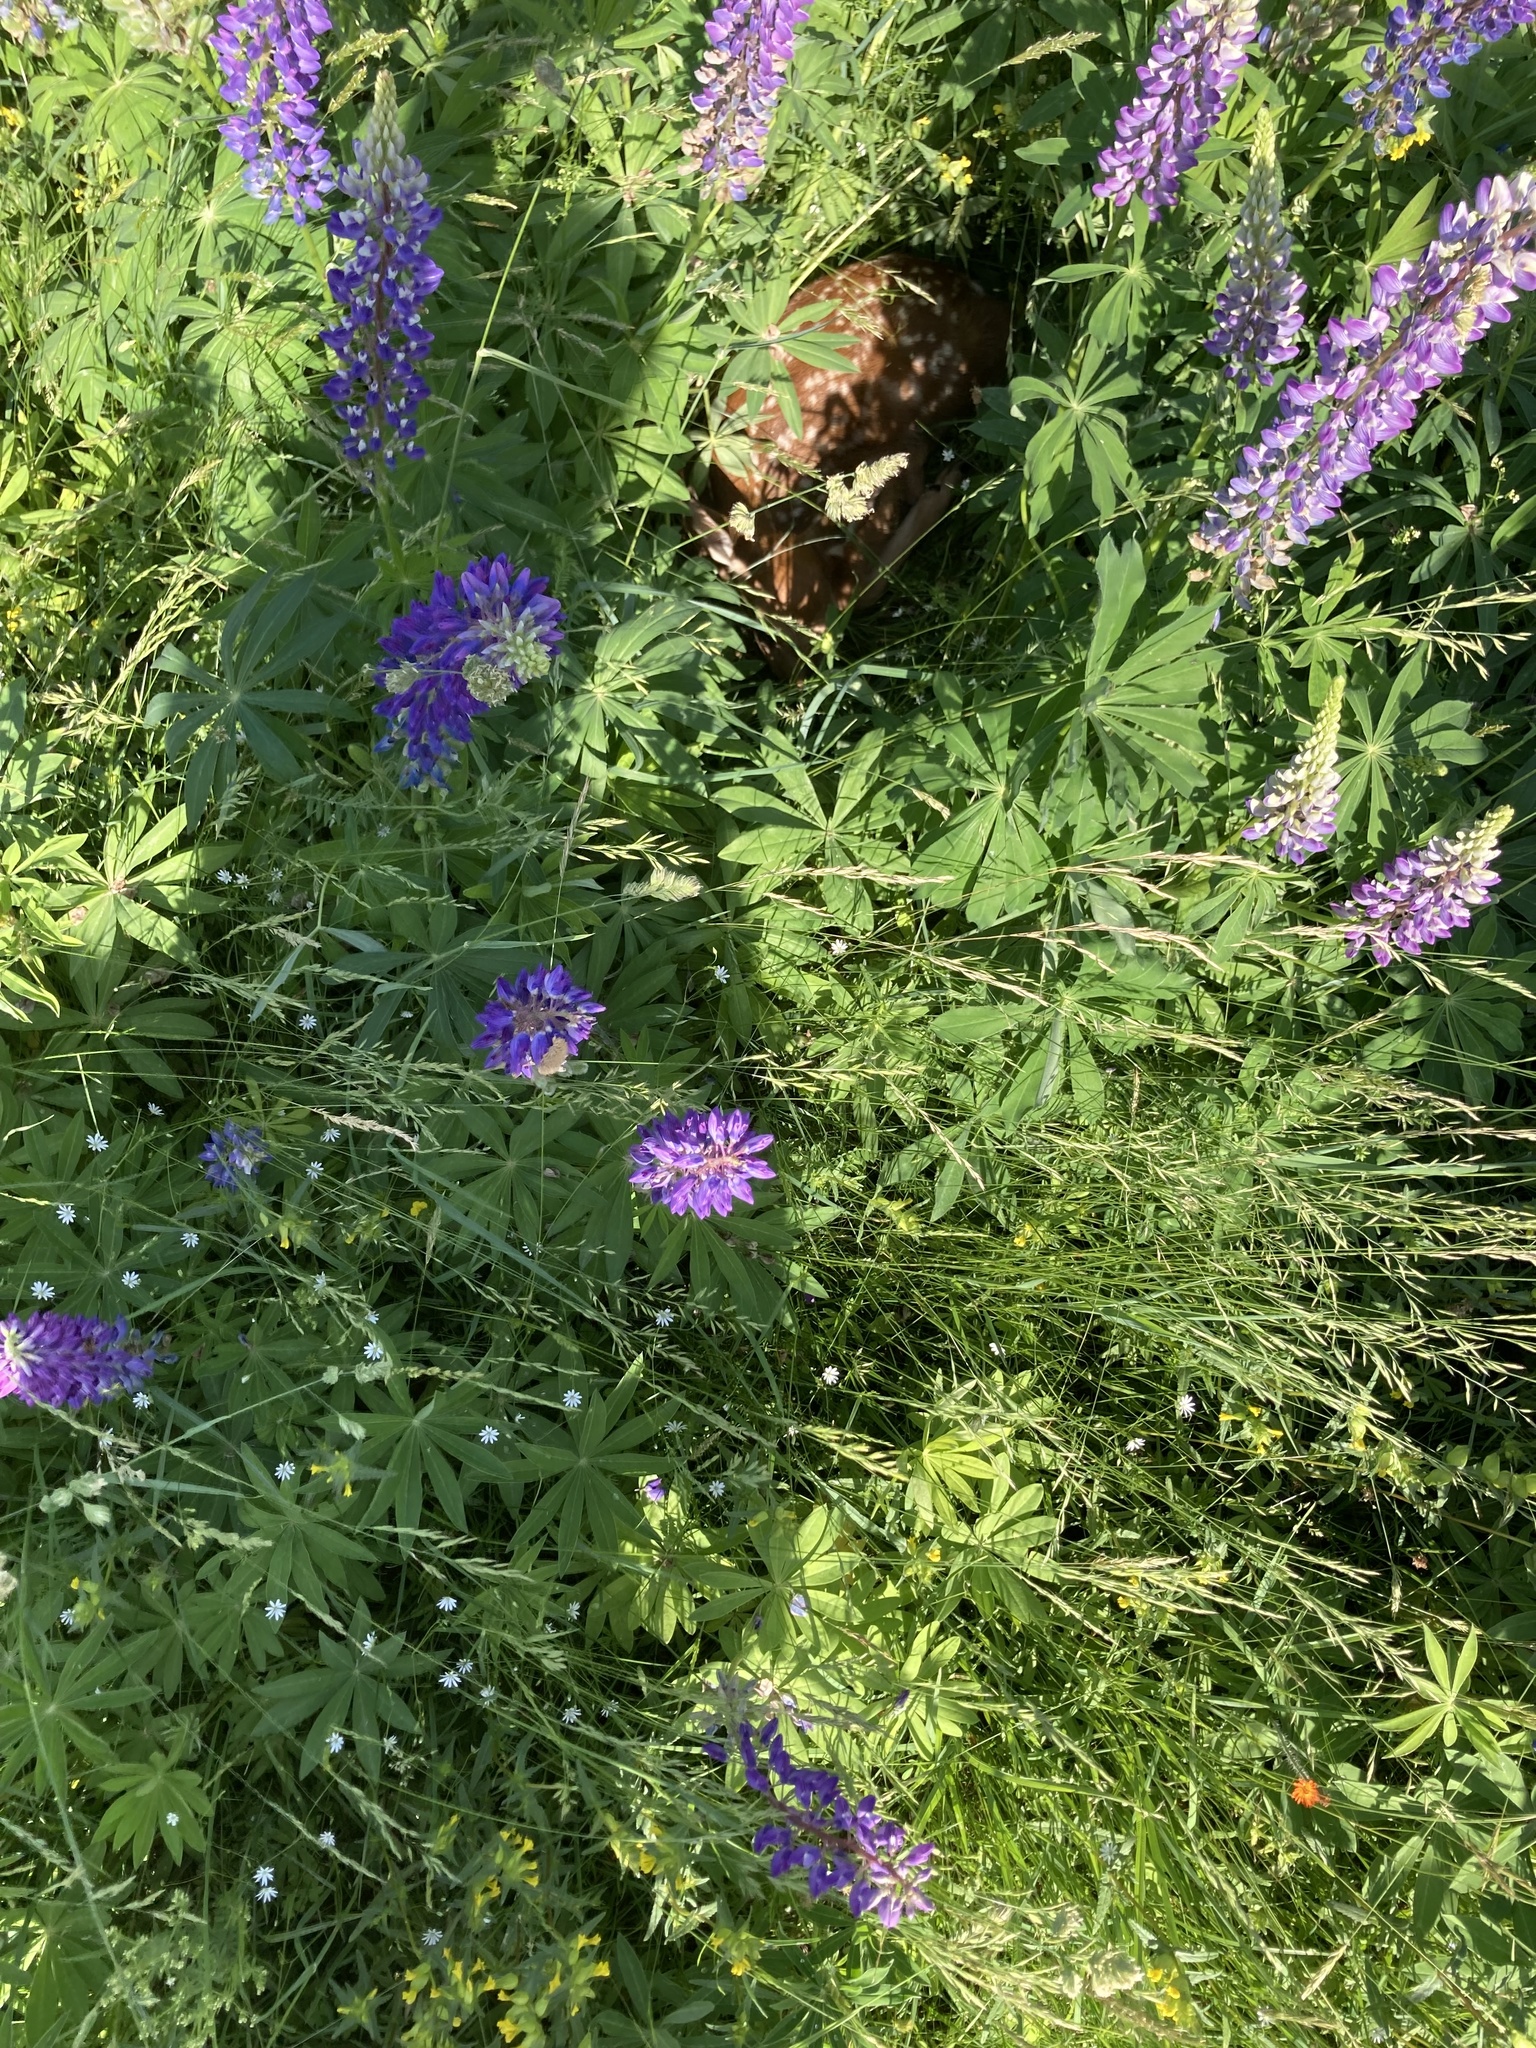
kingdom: Plantae
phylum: Tracheophyta
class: Magnoliopsida
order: Fabales
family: Fabaceae
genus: Lupinus
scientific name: Lupinus polyphyllus
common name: Garden lupin
